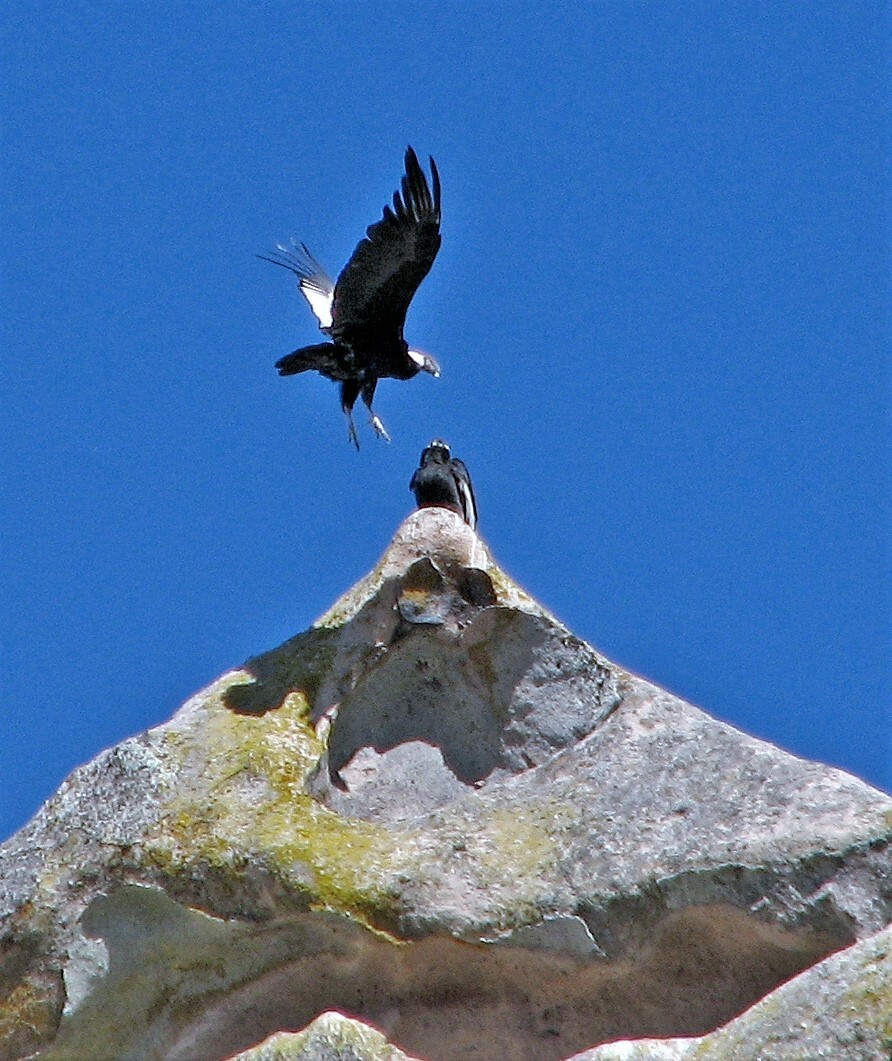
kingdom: Animalia
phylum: Chordata
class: Aves
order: Accipitriformes
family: Cathartidae
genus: Vultur
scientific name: Vultur gryphus
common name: Andean condor
